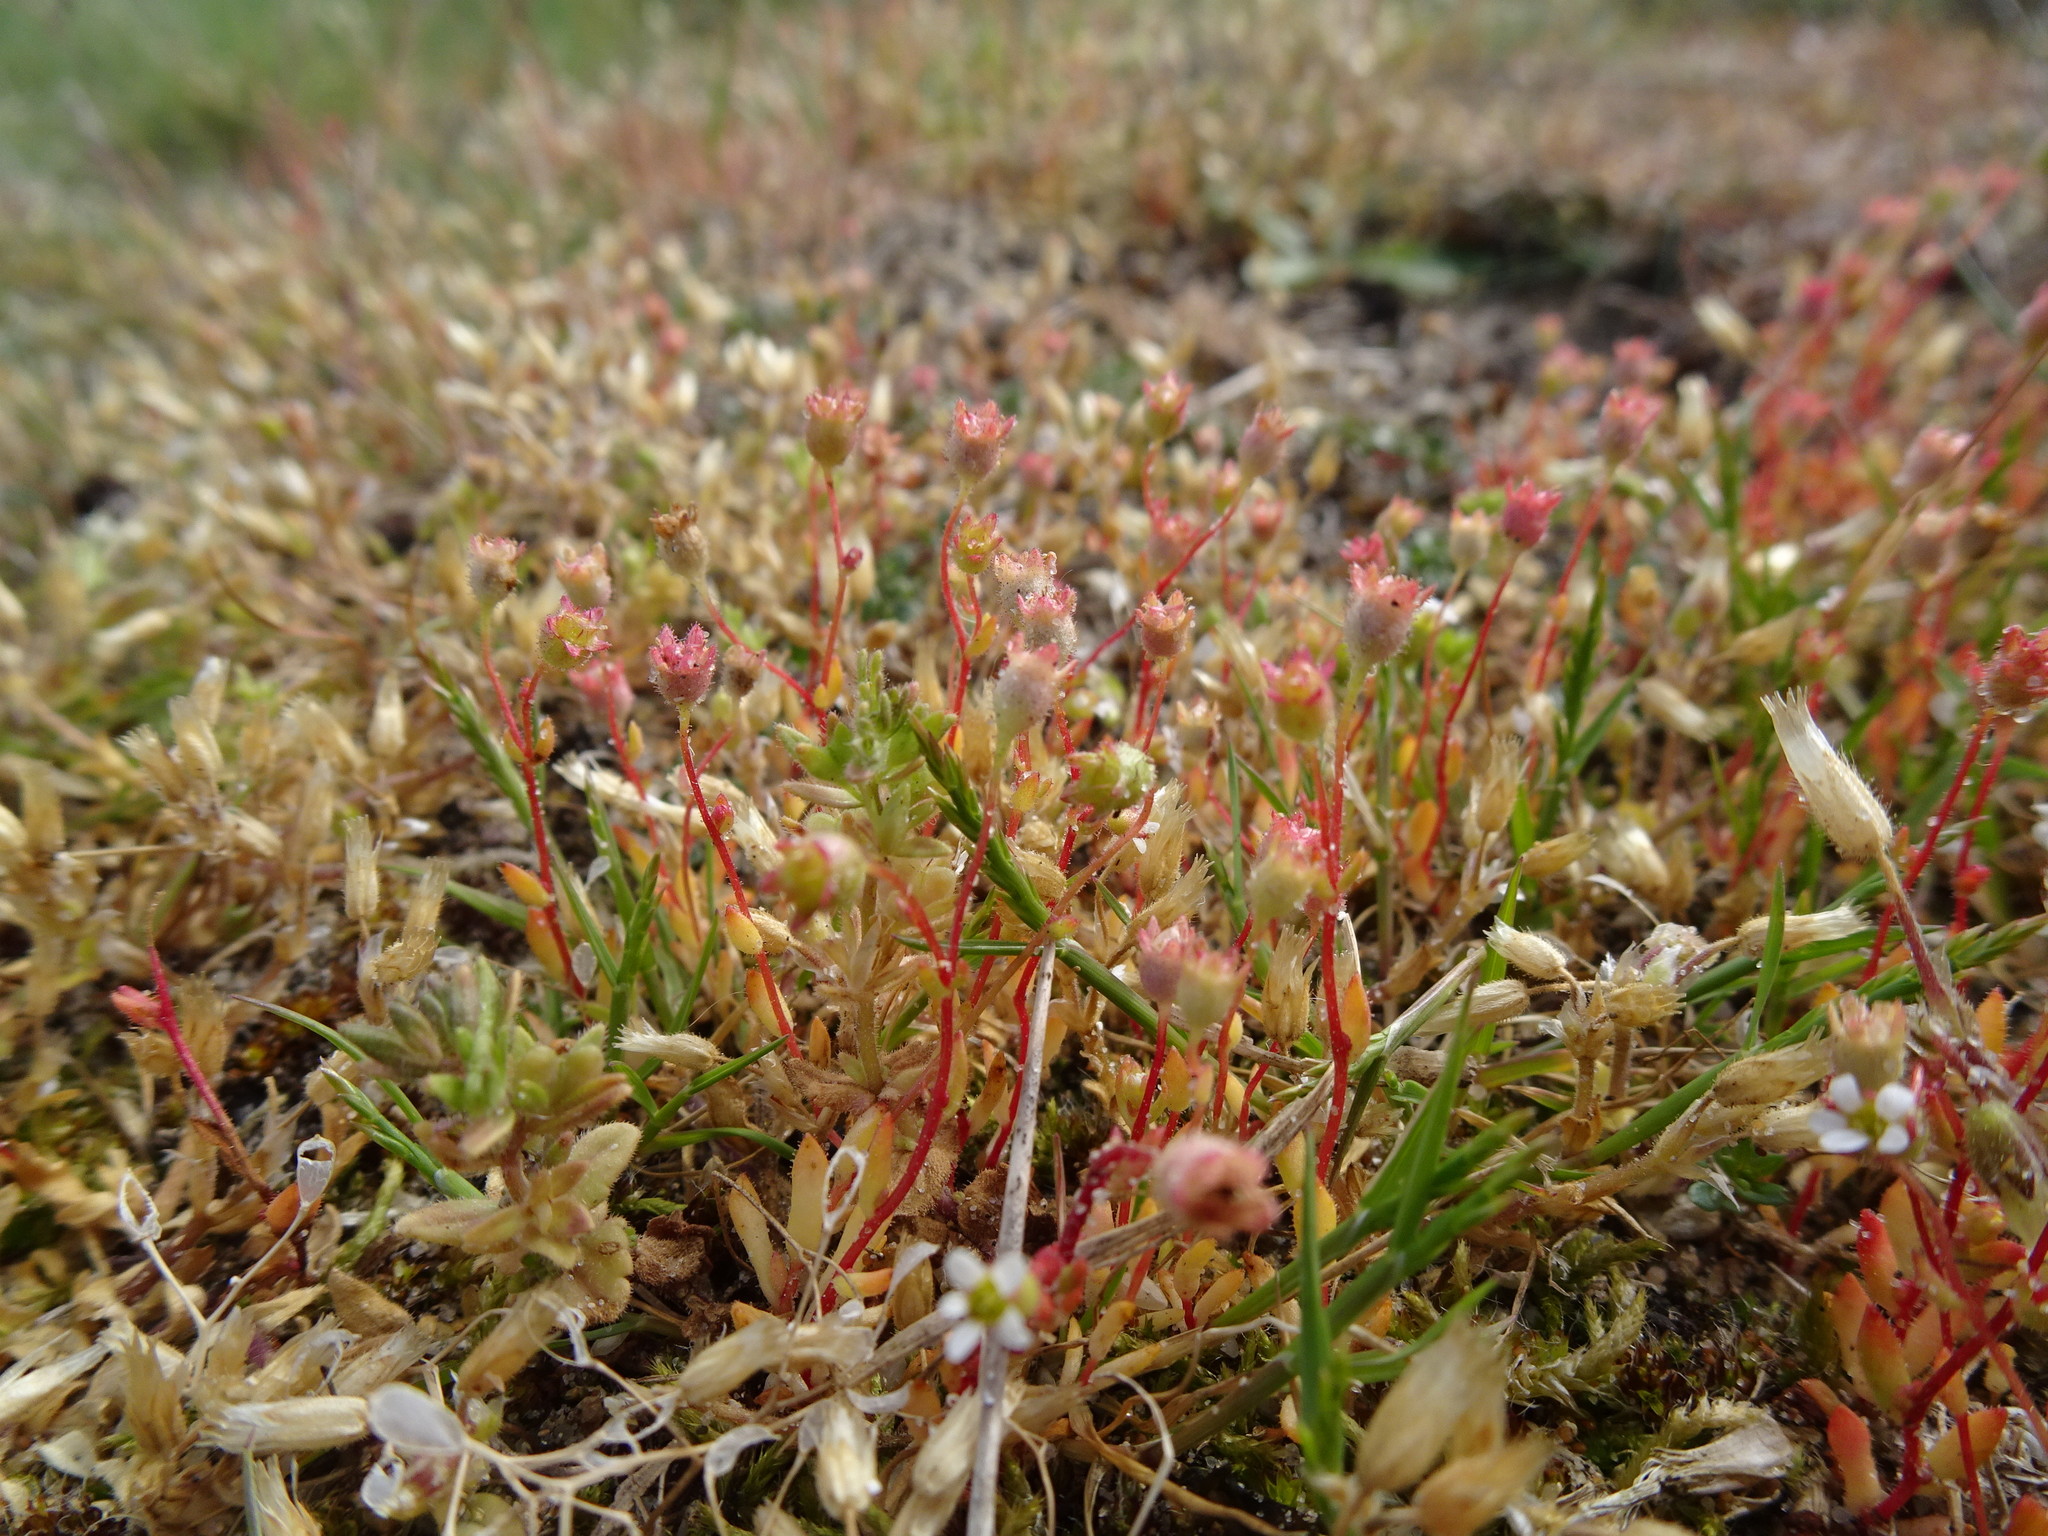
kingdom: Plantae
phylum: Tracheophyta
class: Magnoliopsida
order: Saxifragales
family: Saxifragaceae
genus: Saxifraga
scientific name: Saxifraga tridactylites
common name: Rue-leaved saxifrage
